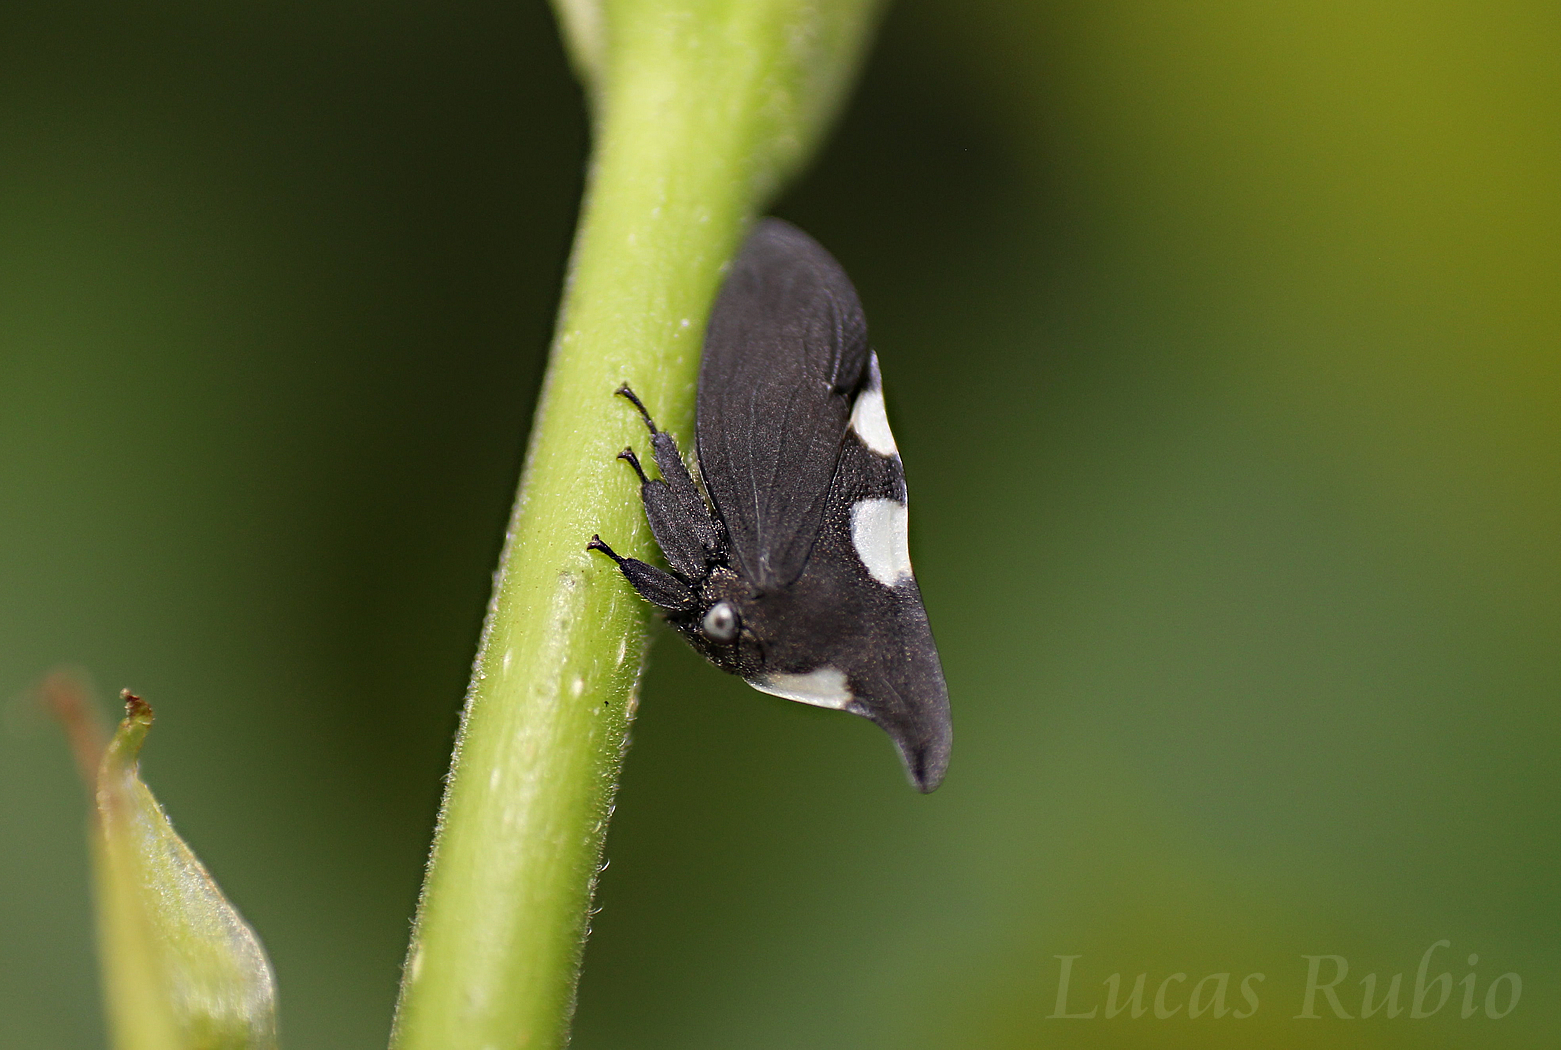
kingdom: Animalia
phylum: Arthropoda
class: Insecta
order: Hemiptera
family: Membracidae
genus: Enchophyllum
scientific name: Enchophyllum nigrocuprea
